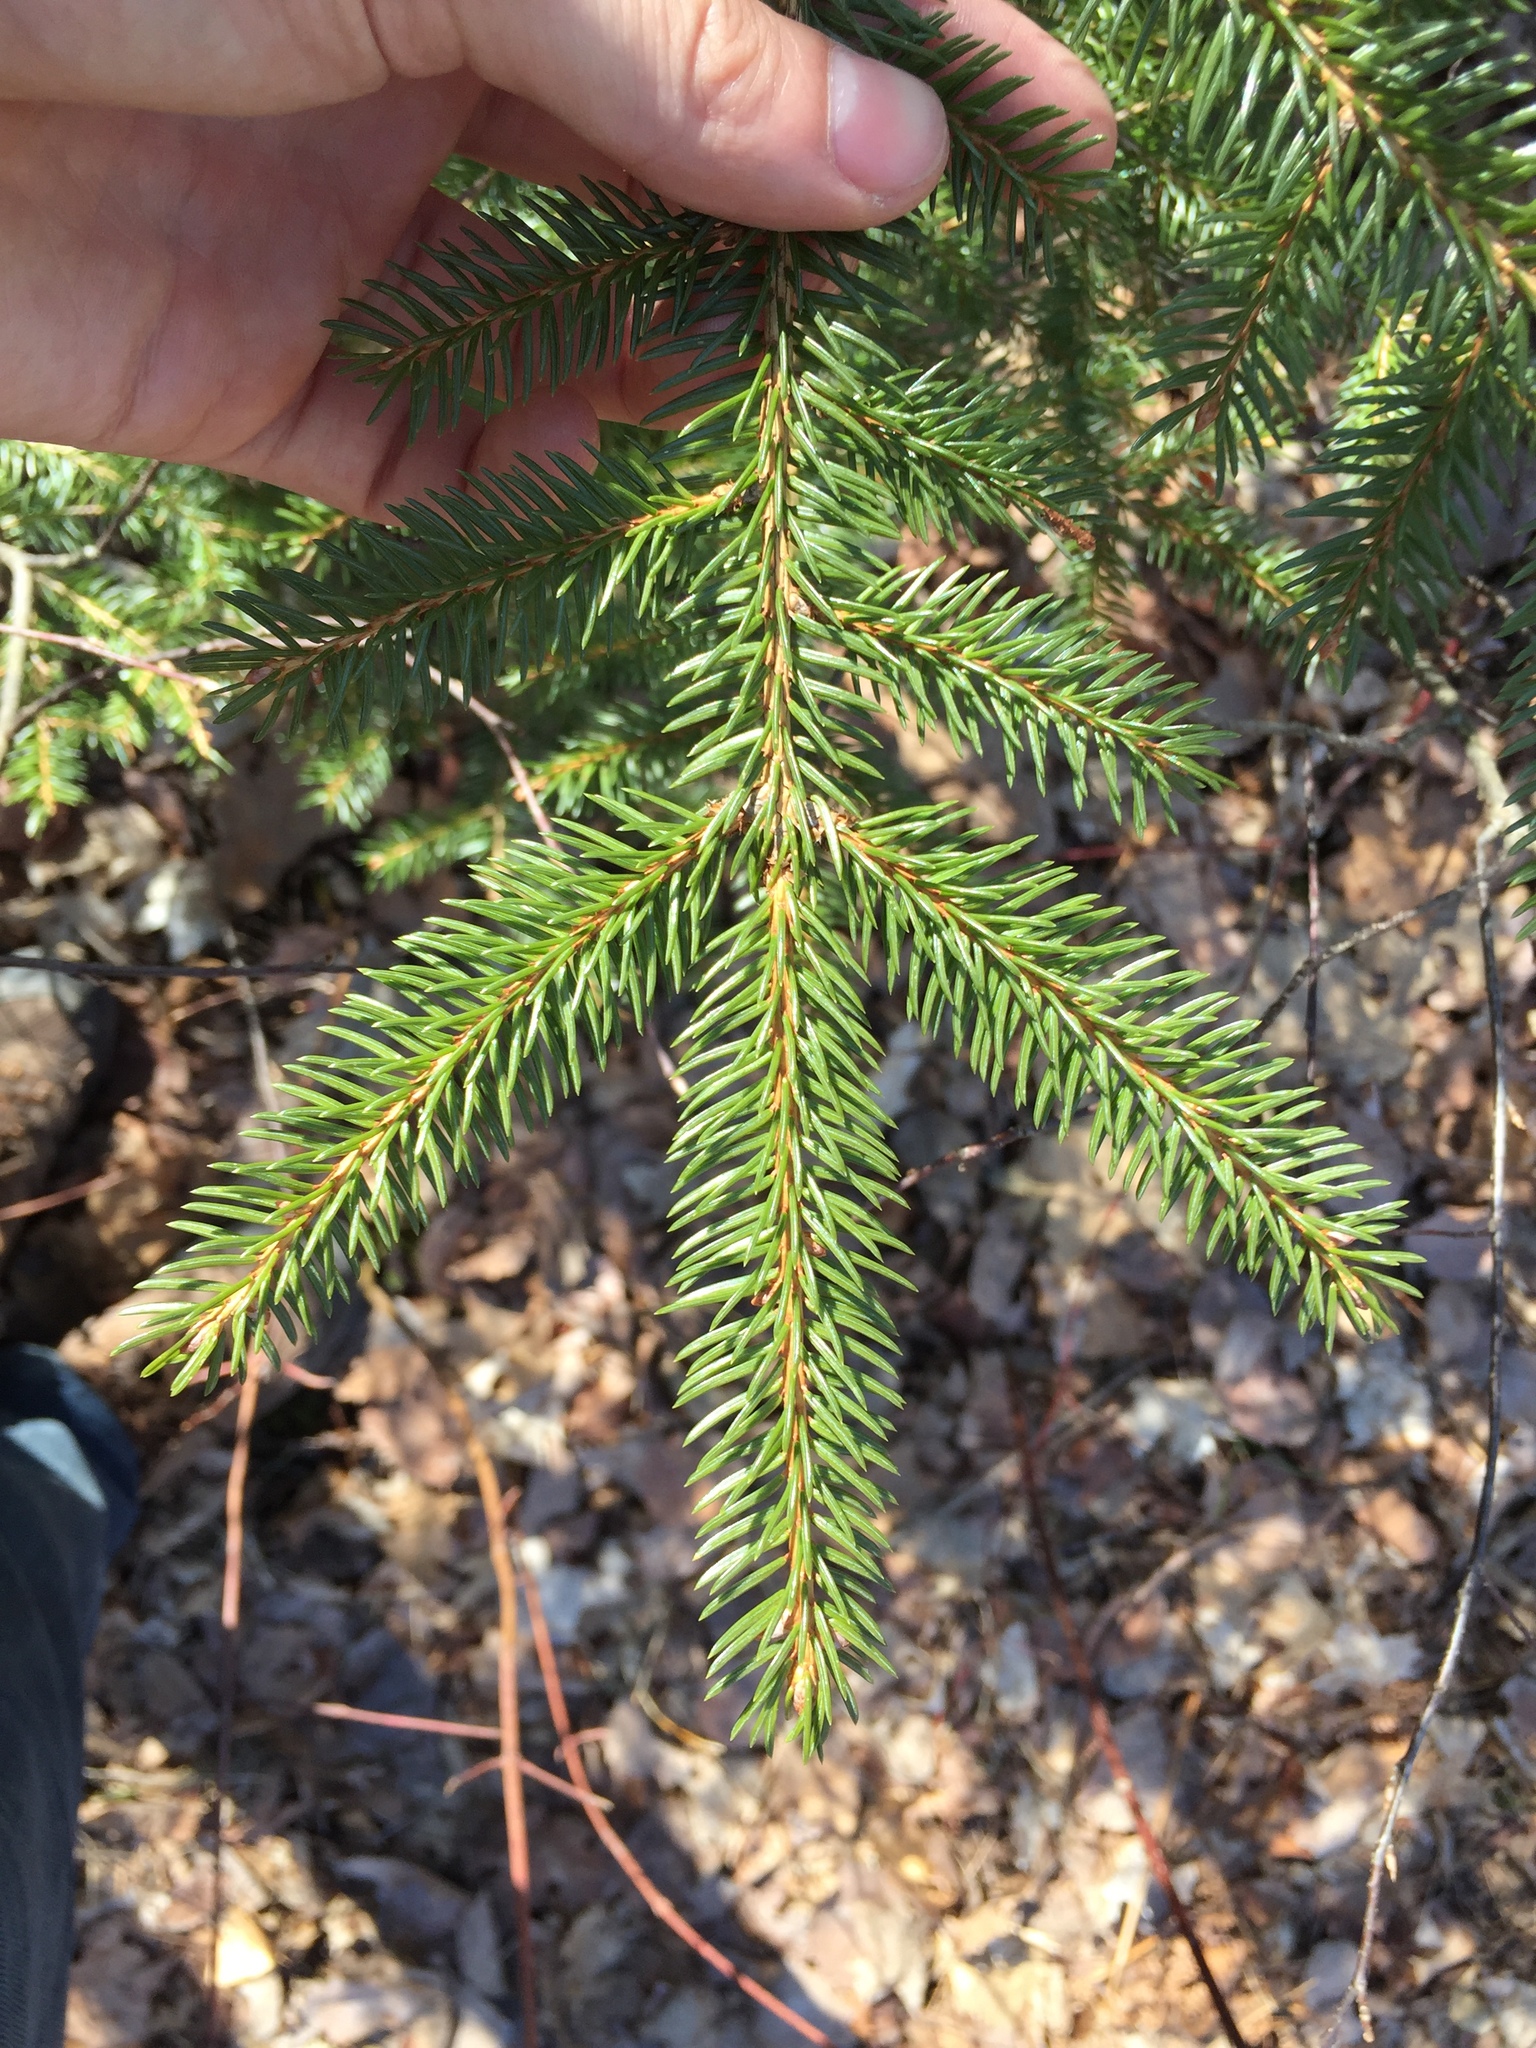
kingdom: Plantae
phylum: Tracheophyta
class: Pinopsida
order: Pinales
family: Pinaceae
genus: Picea
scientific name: Picea glauca
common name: White spruce
